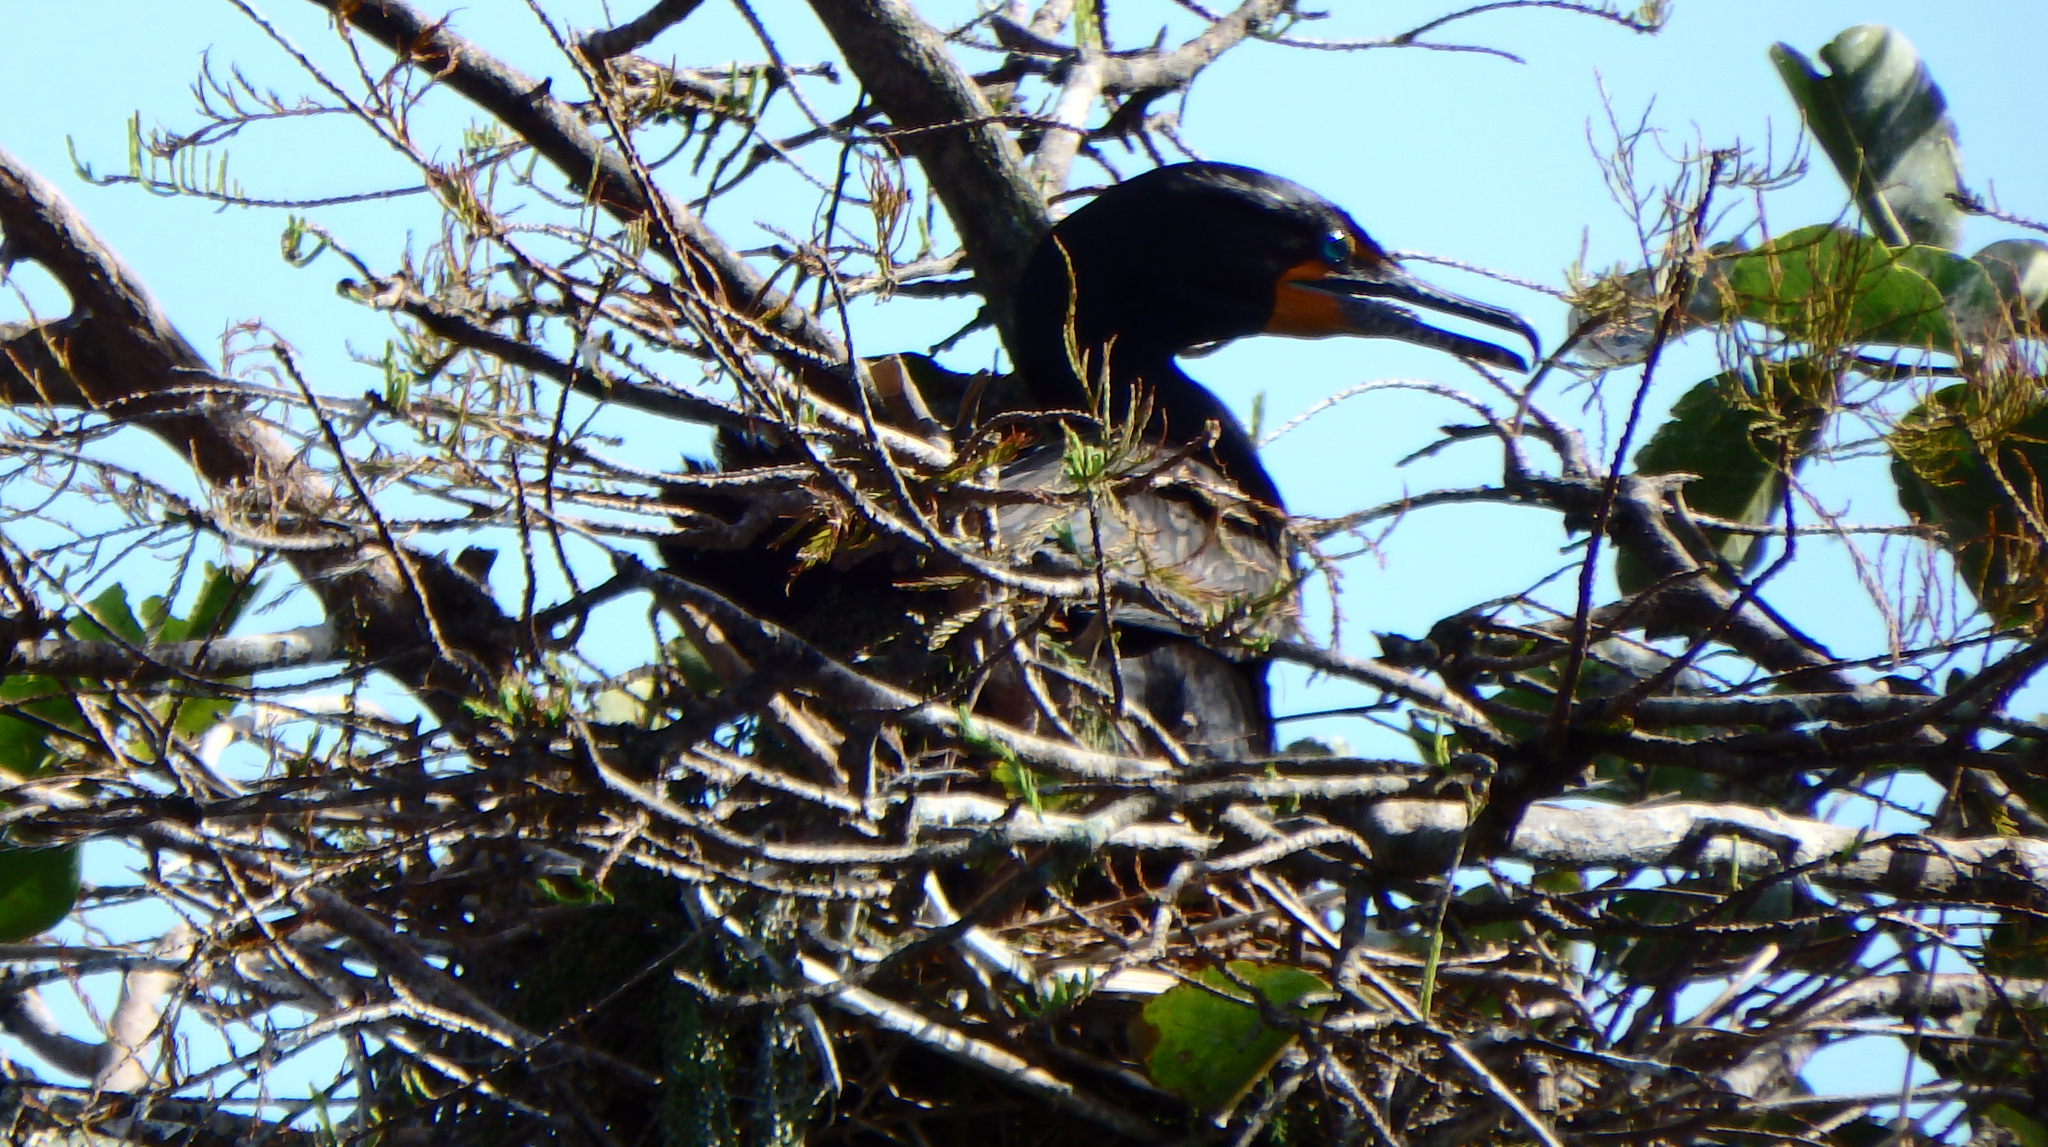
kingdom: Animalia
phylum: Chordata
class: Aves
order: Suliformes
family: Phalacrocoracidae
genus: Phalacrocorax
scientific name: Phalacrocorax auritus
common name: Double-crested cormorant
